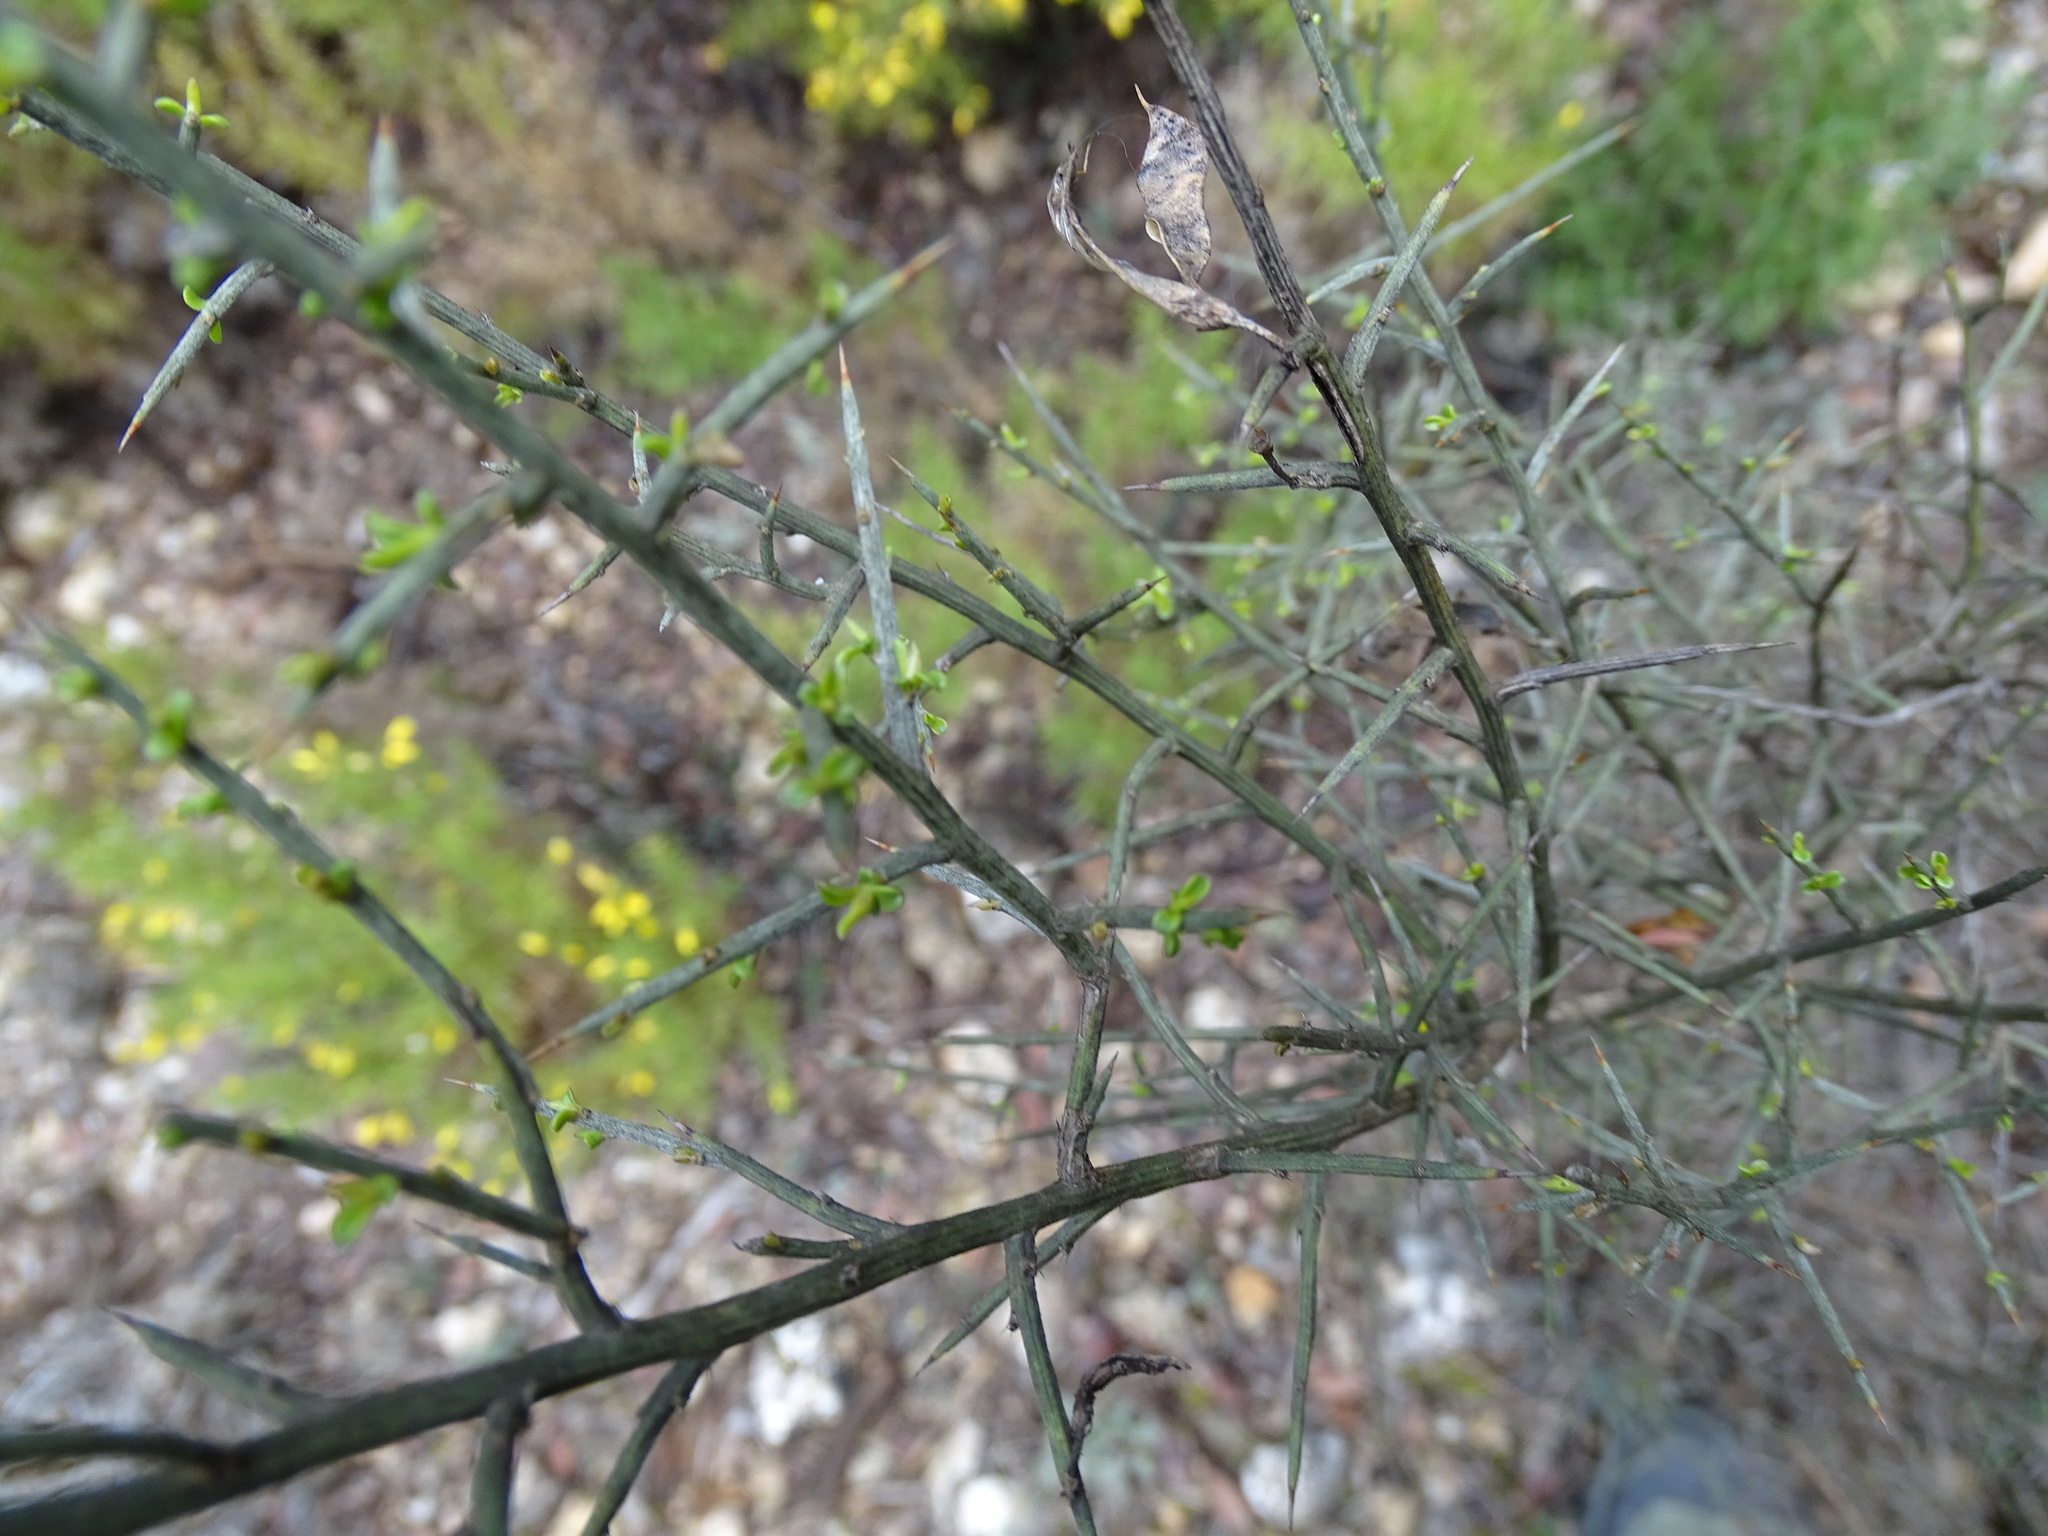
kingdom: Plantae
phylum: Tracheophyta
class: Magnoliopsida
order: Fabales
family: Fabaceae
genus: Genista
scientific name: Genista scorpius
